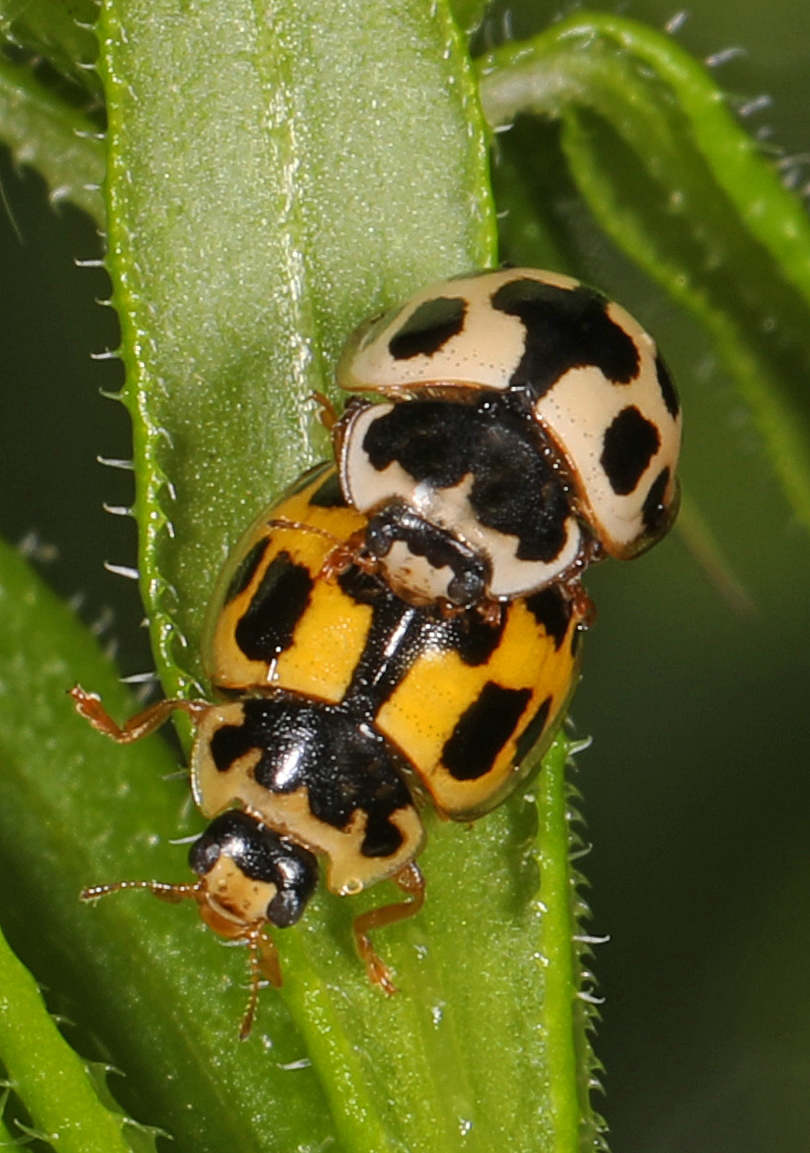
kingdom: Animalia
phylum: Arthropoda
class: Insecta
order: Coleoptera
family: Coccinellidae
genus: Propylaea
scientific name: Propylaea quatuordecimpunctata
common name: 14-spotted ladybird beetle
